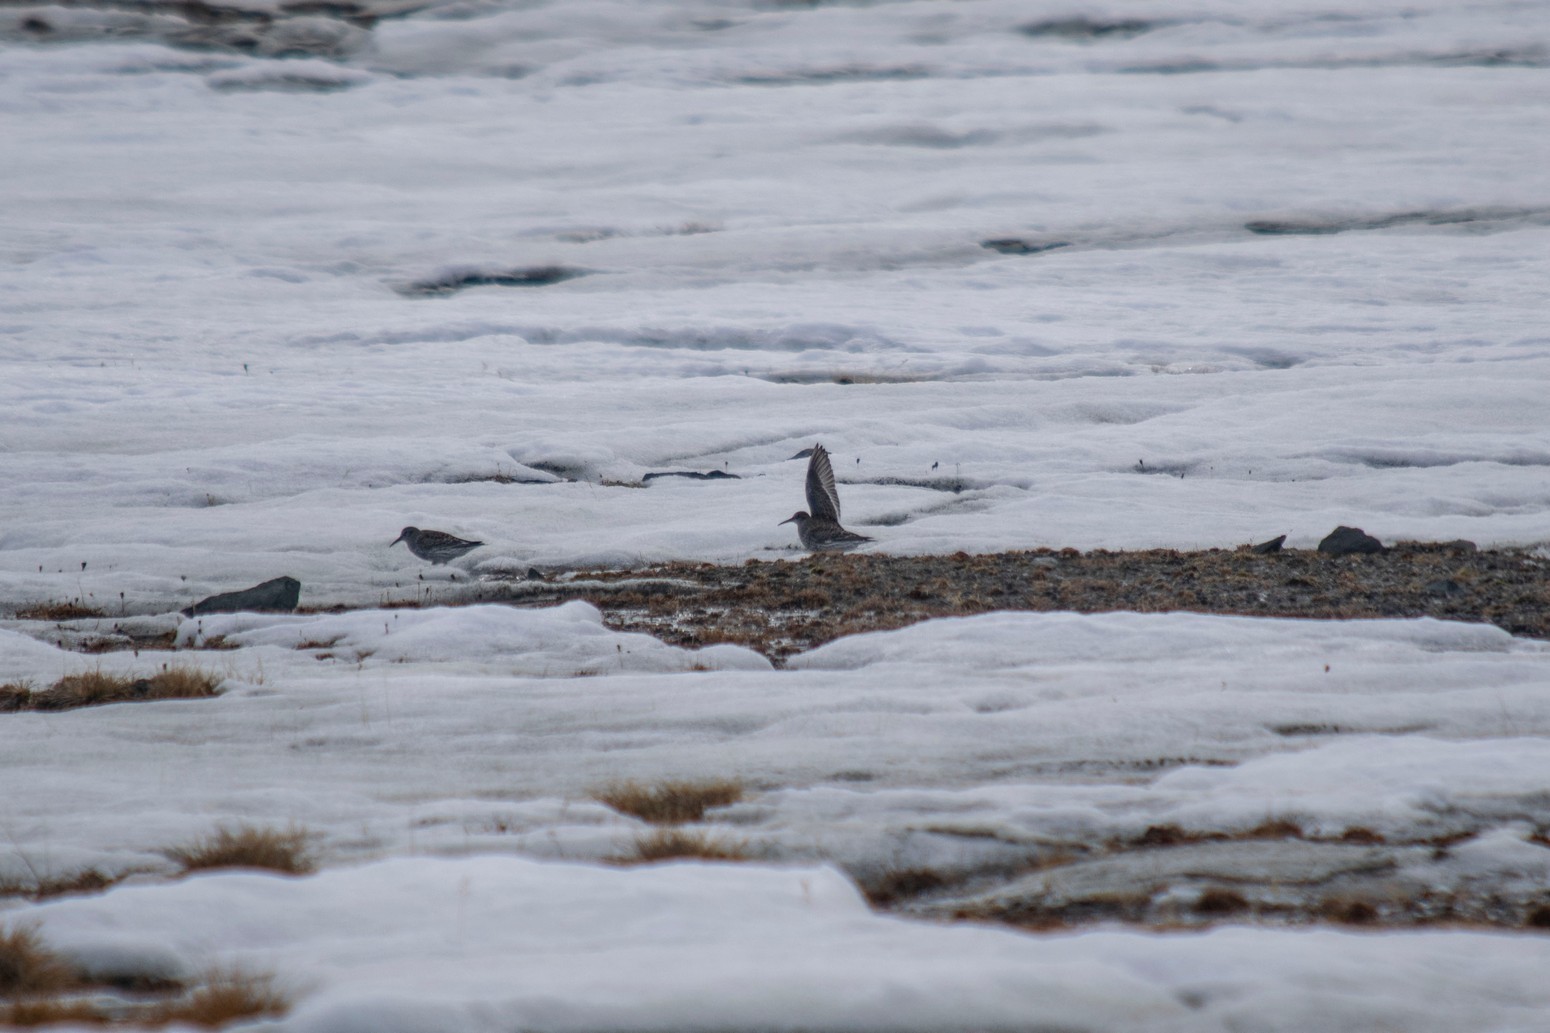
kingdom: Animalia
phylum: Chordata
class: Aves
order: Charadriiformes
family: Scolopacidae
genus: Calidris
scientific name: Calidris maritima
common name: Purple sandpiper
